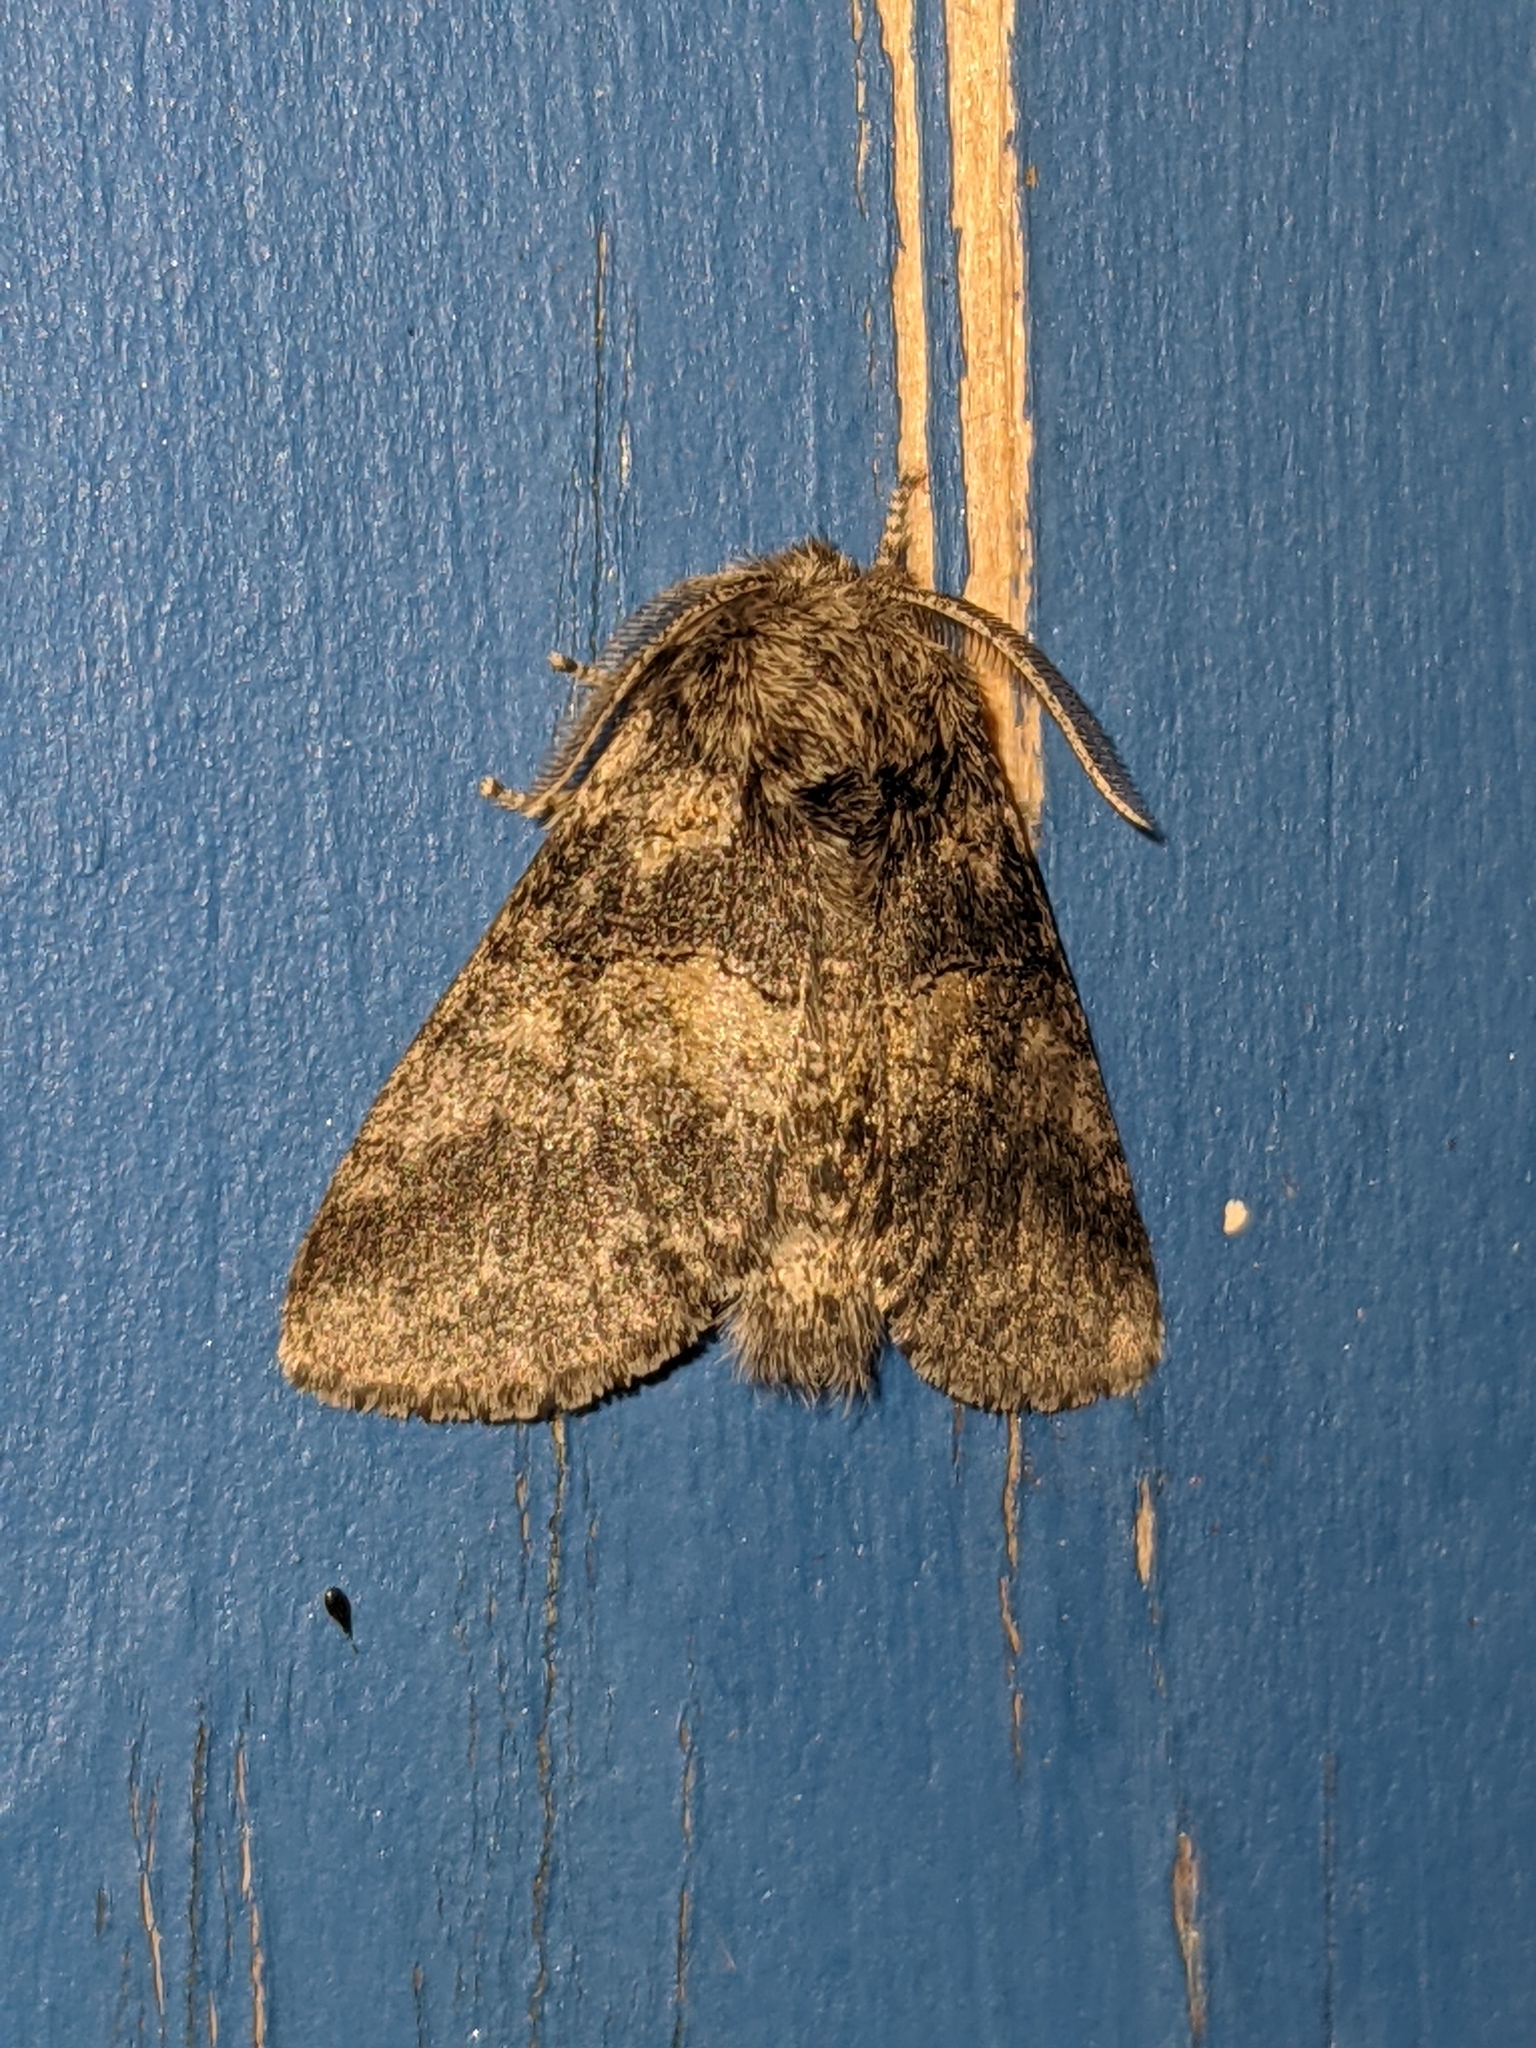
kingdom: Animalia
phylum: Arthropoda
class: Insecta
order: Lepidoptera
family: Notodontidae
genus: Gluphisia
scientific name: Gluphisia septentrionis
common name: Common gluphisia
